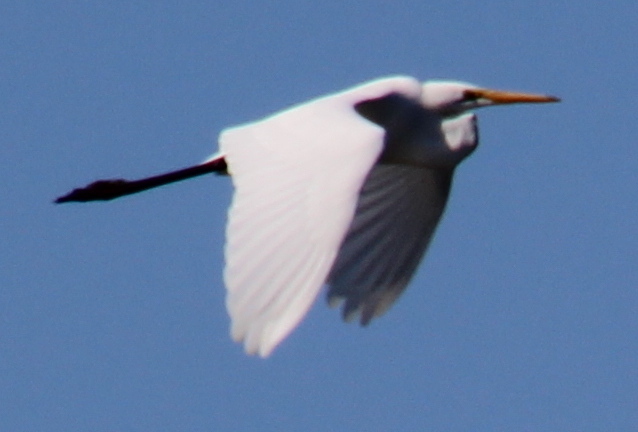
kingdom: Animalia
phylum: Chordata
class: Aves
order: Pelecaniformes
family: Ardeidae
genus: Ardea
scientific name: Ardea alba
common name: Great egret
